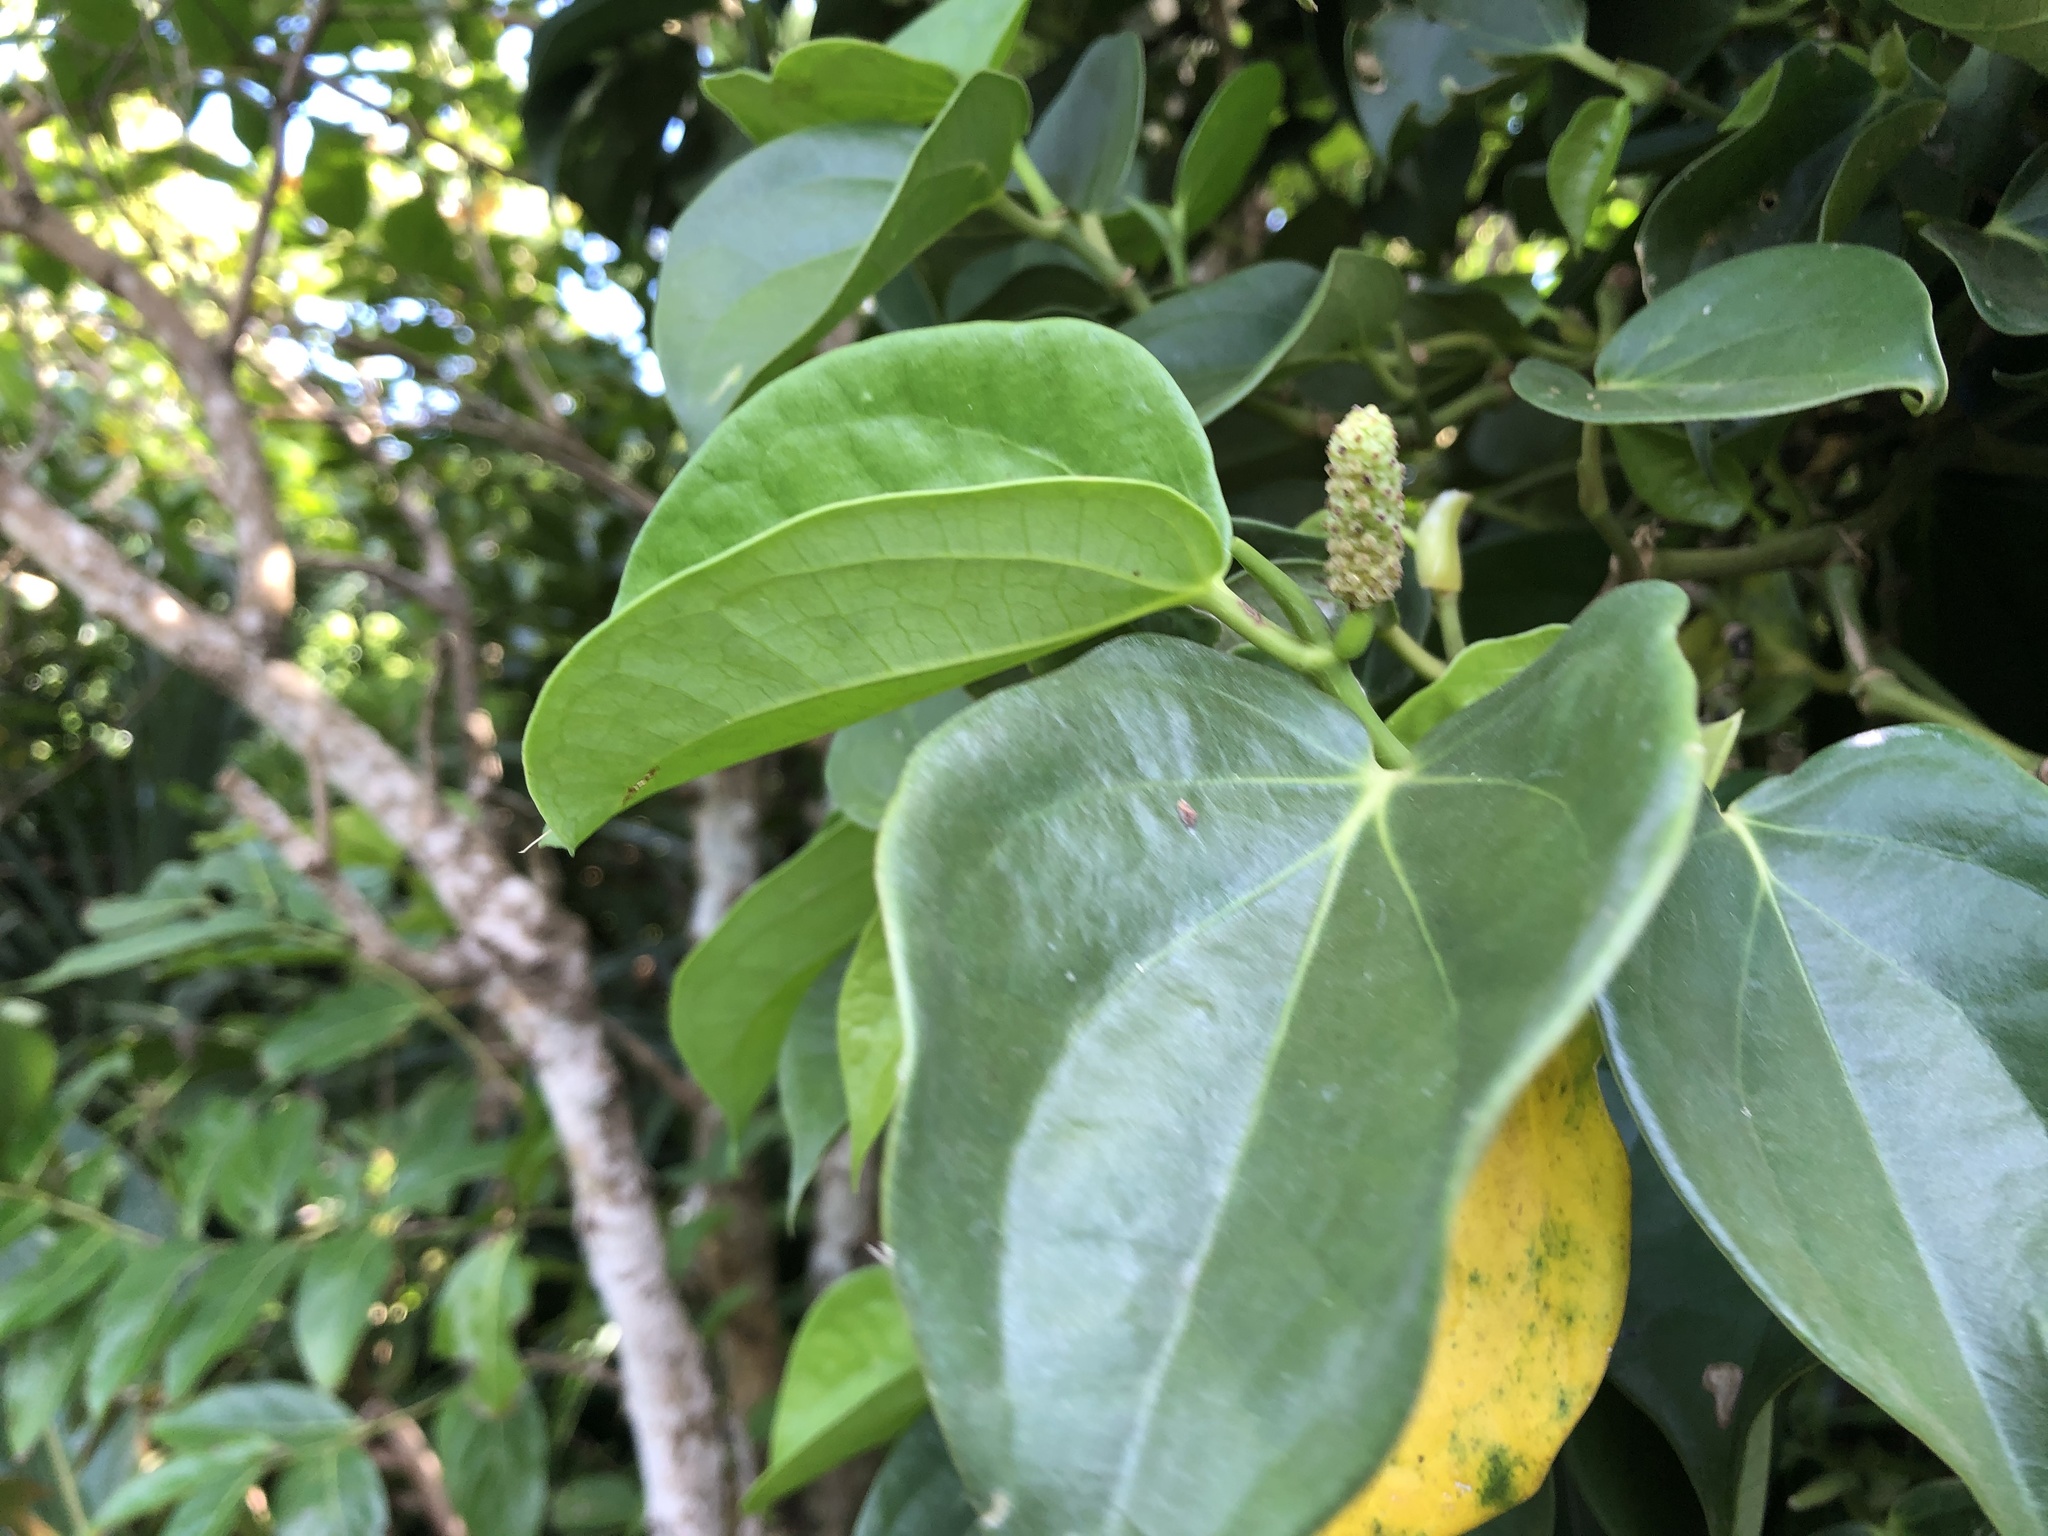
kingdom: Plantae
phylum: Tracheophyta
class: Magnoliopsida
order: Piperales
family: Piperaceae
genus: Piper
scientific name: Piper lanyuense
